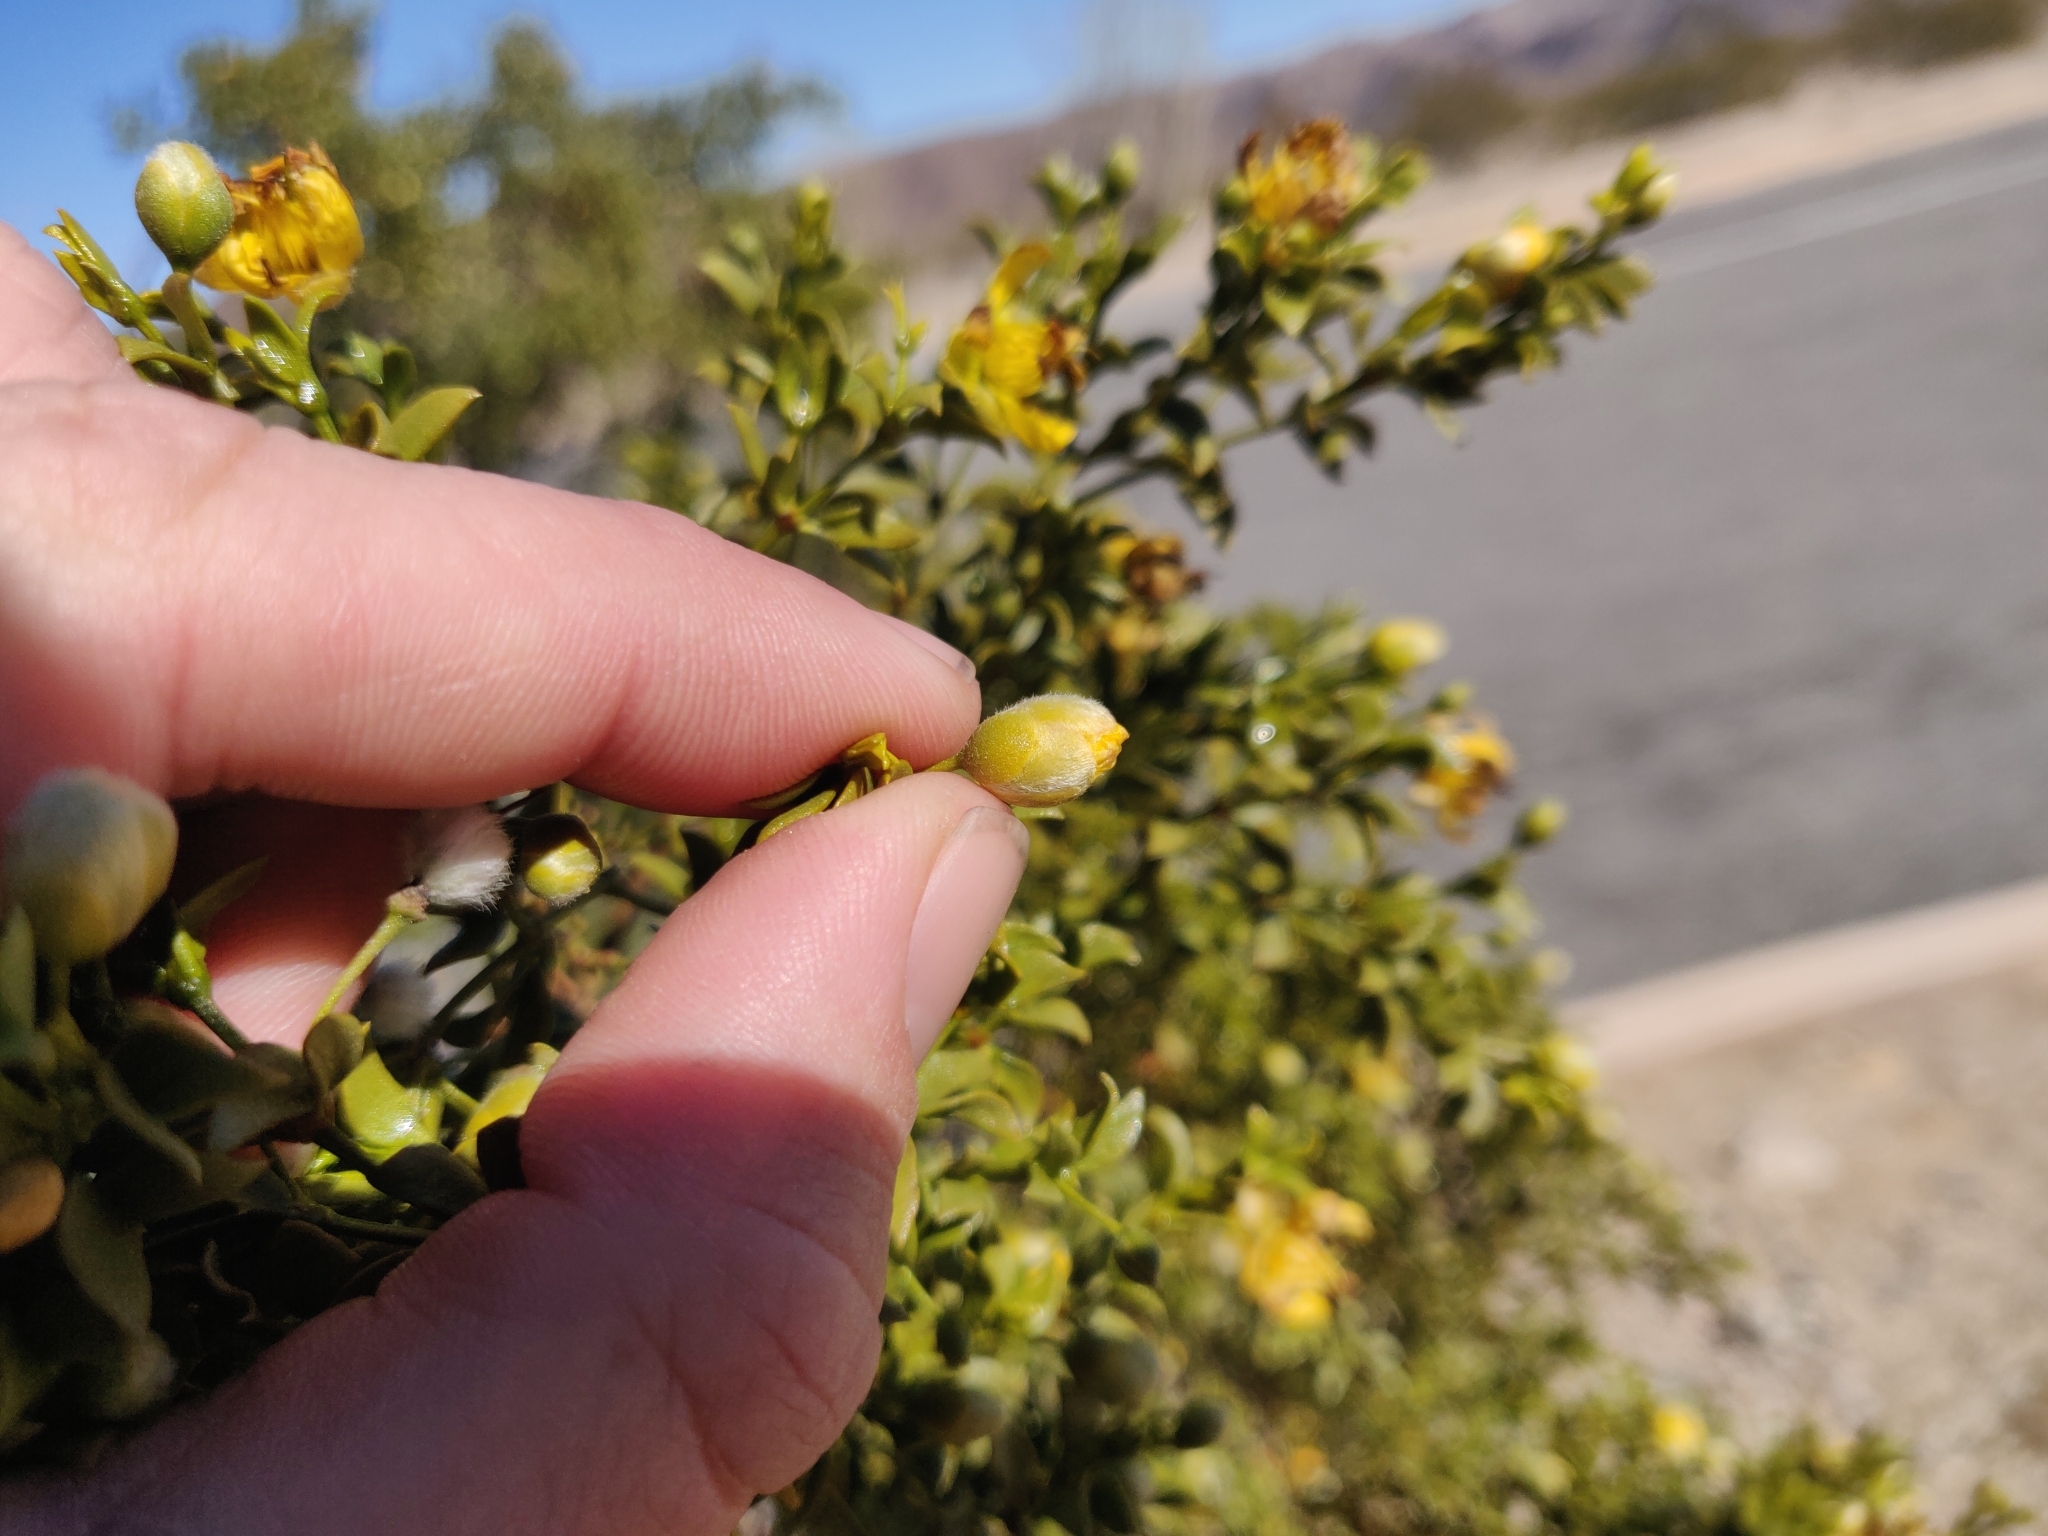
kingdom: Plantae
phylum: Tracheophyta
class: Magnoliopsida
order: Zygophyllales
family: Zygophyllaceae
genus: Larrea
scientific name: Larrea tridentata
